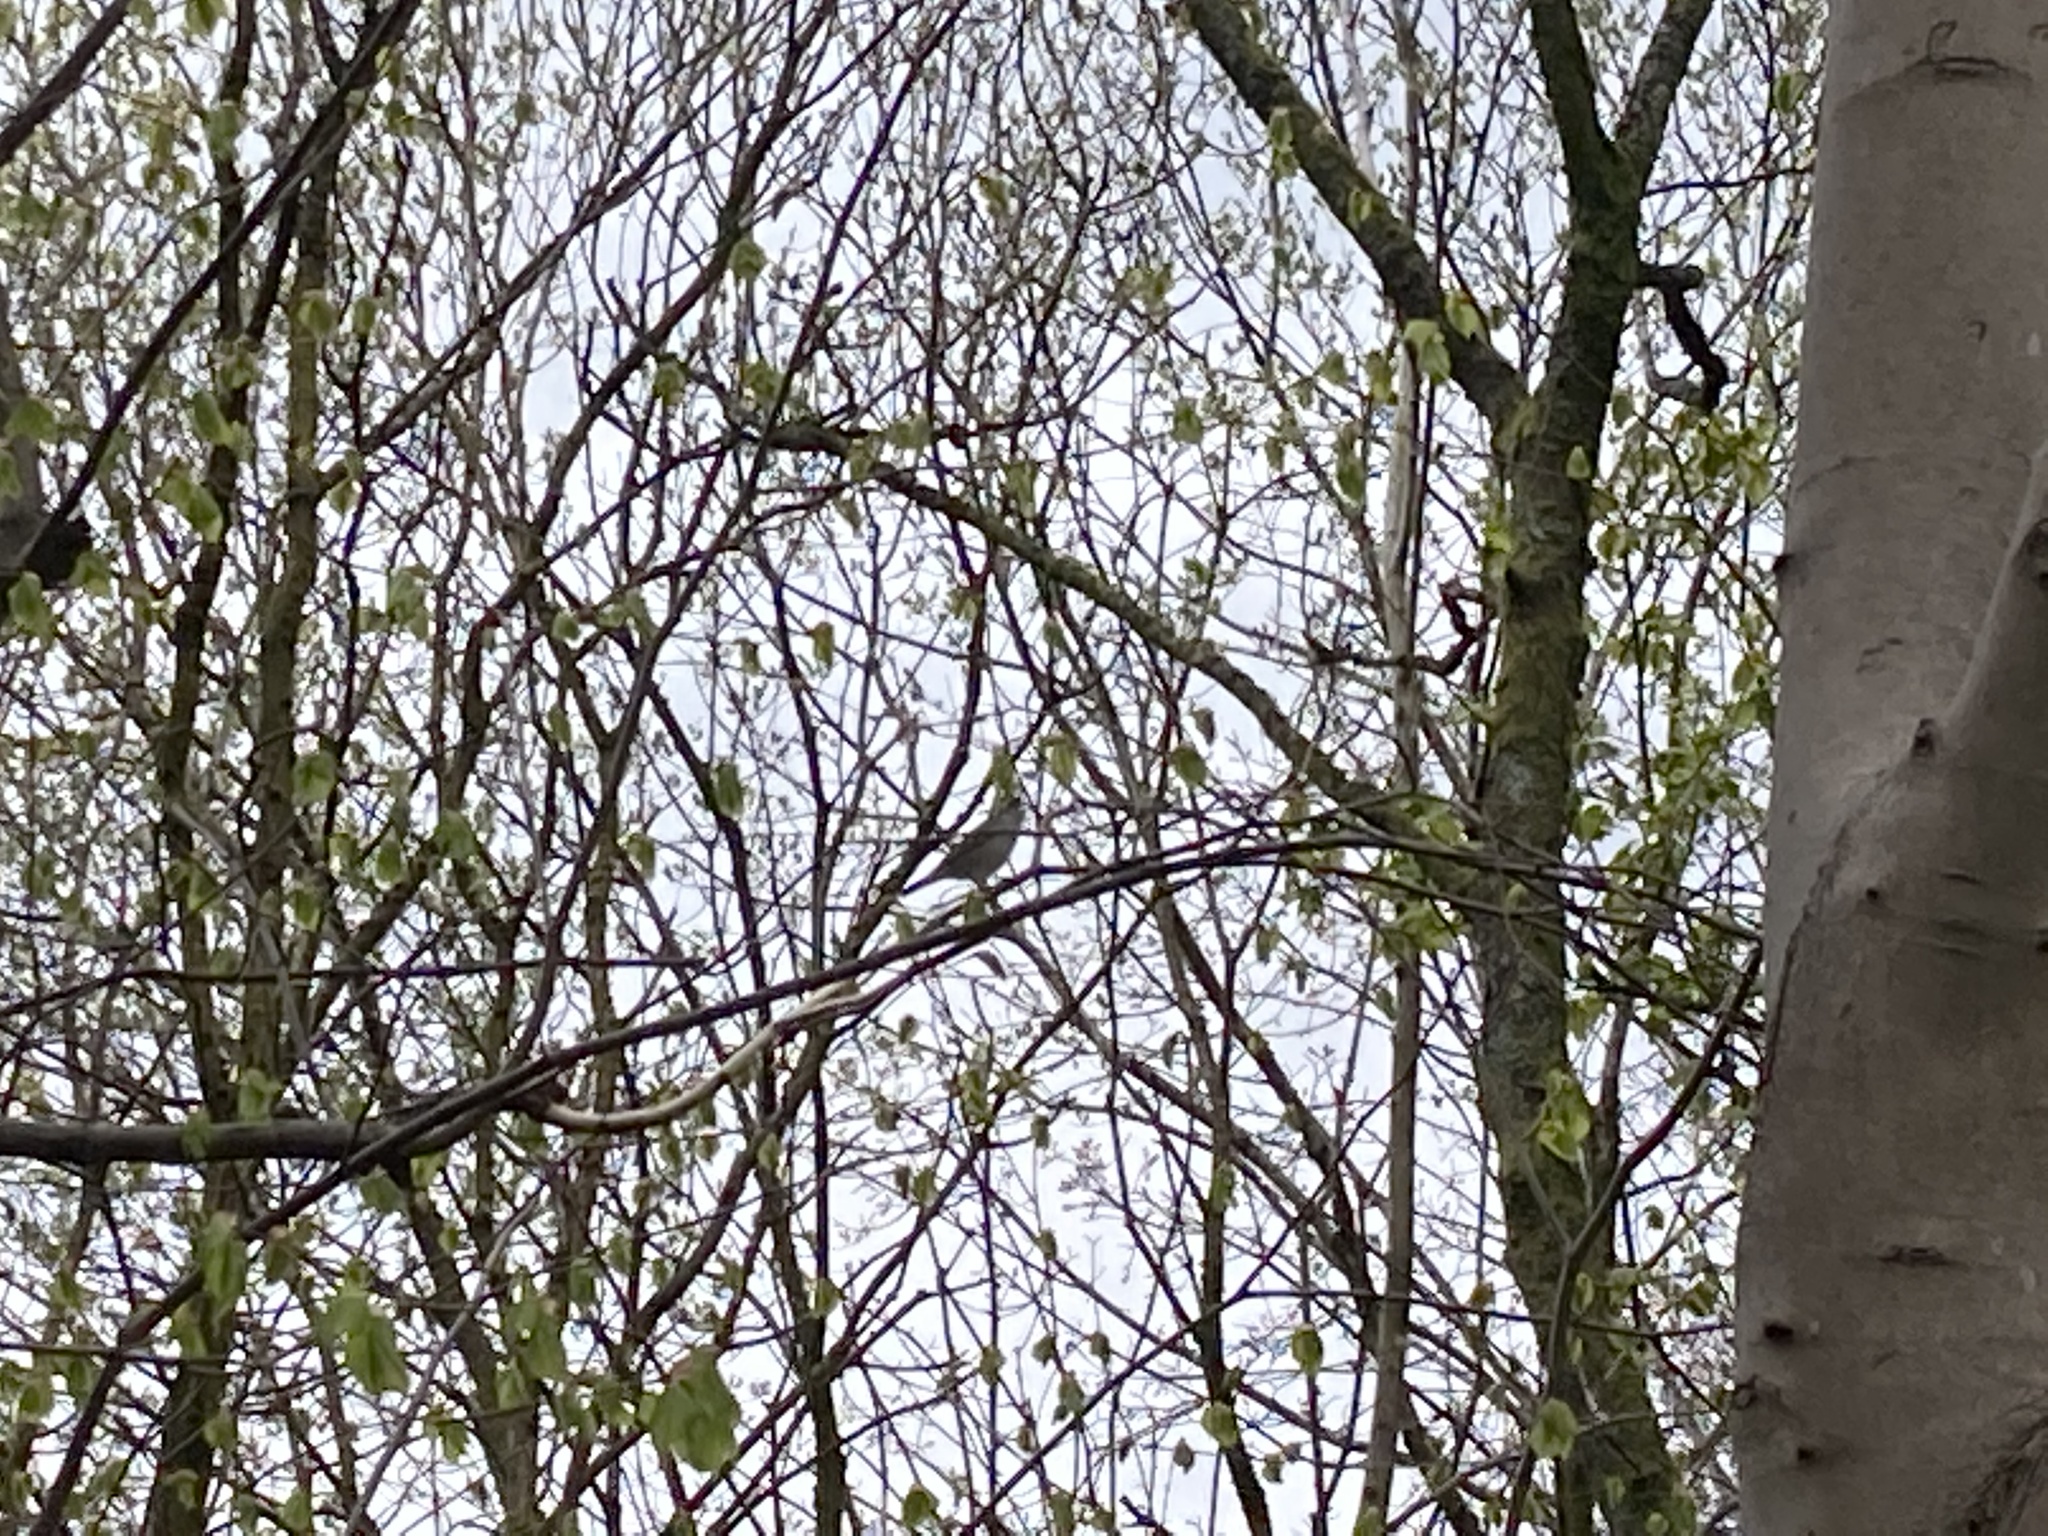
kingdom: Animalia
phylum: Chordata
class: Aves
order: Passeriformes
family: Sylviidae
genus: Sylvia
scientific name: Sylvia atricapilla
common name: Eurasian blackcap
